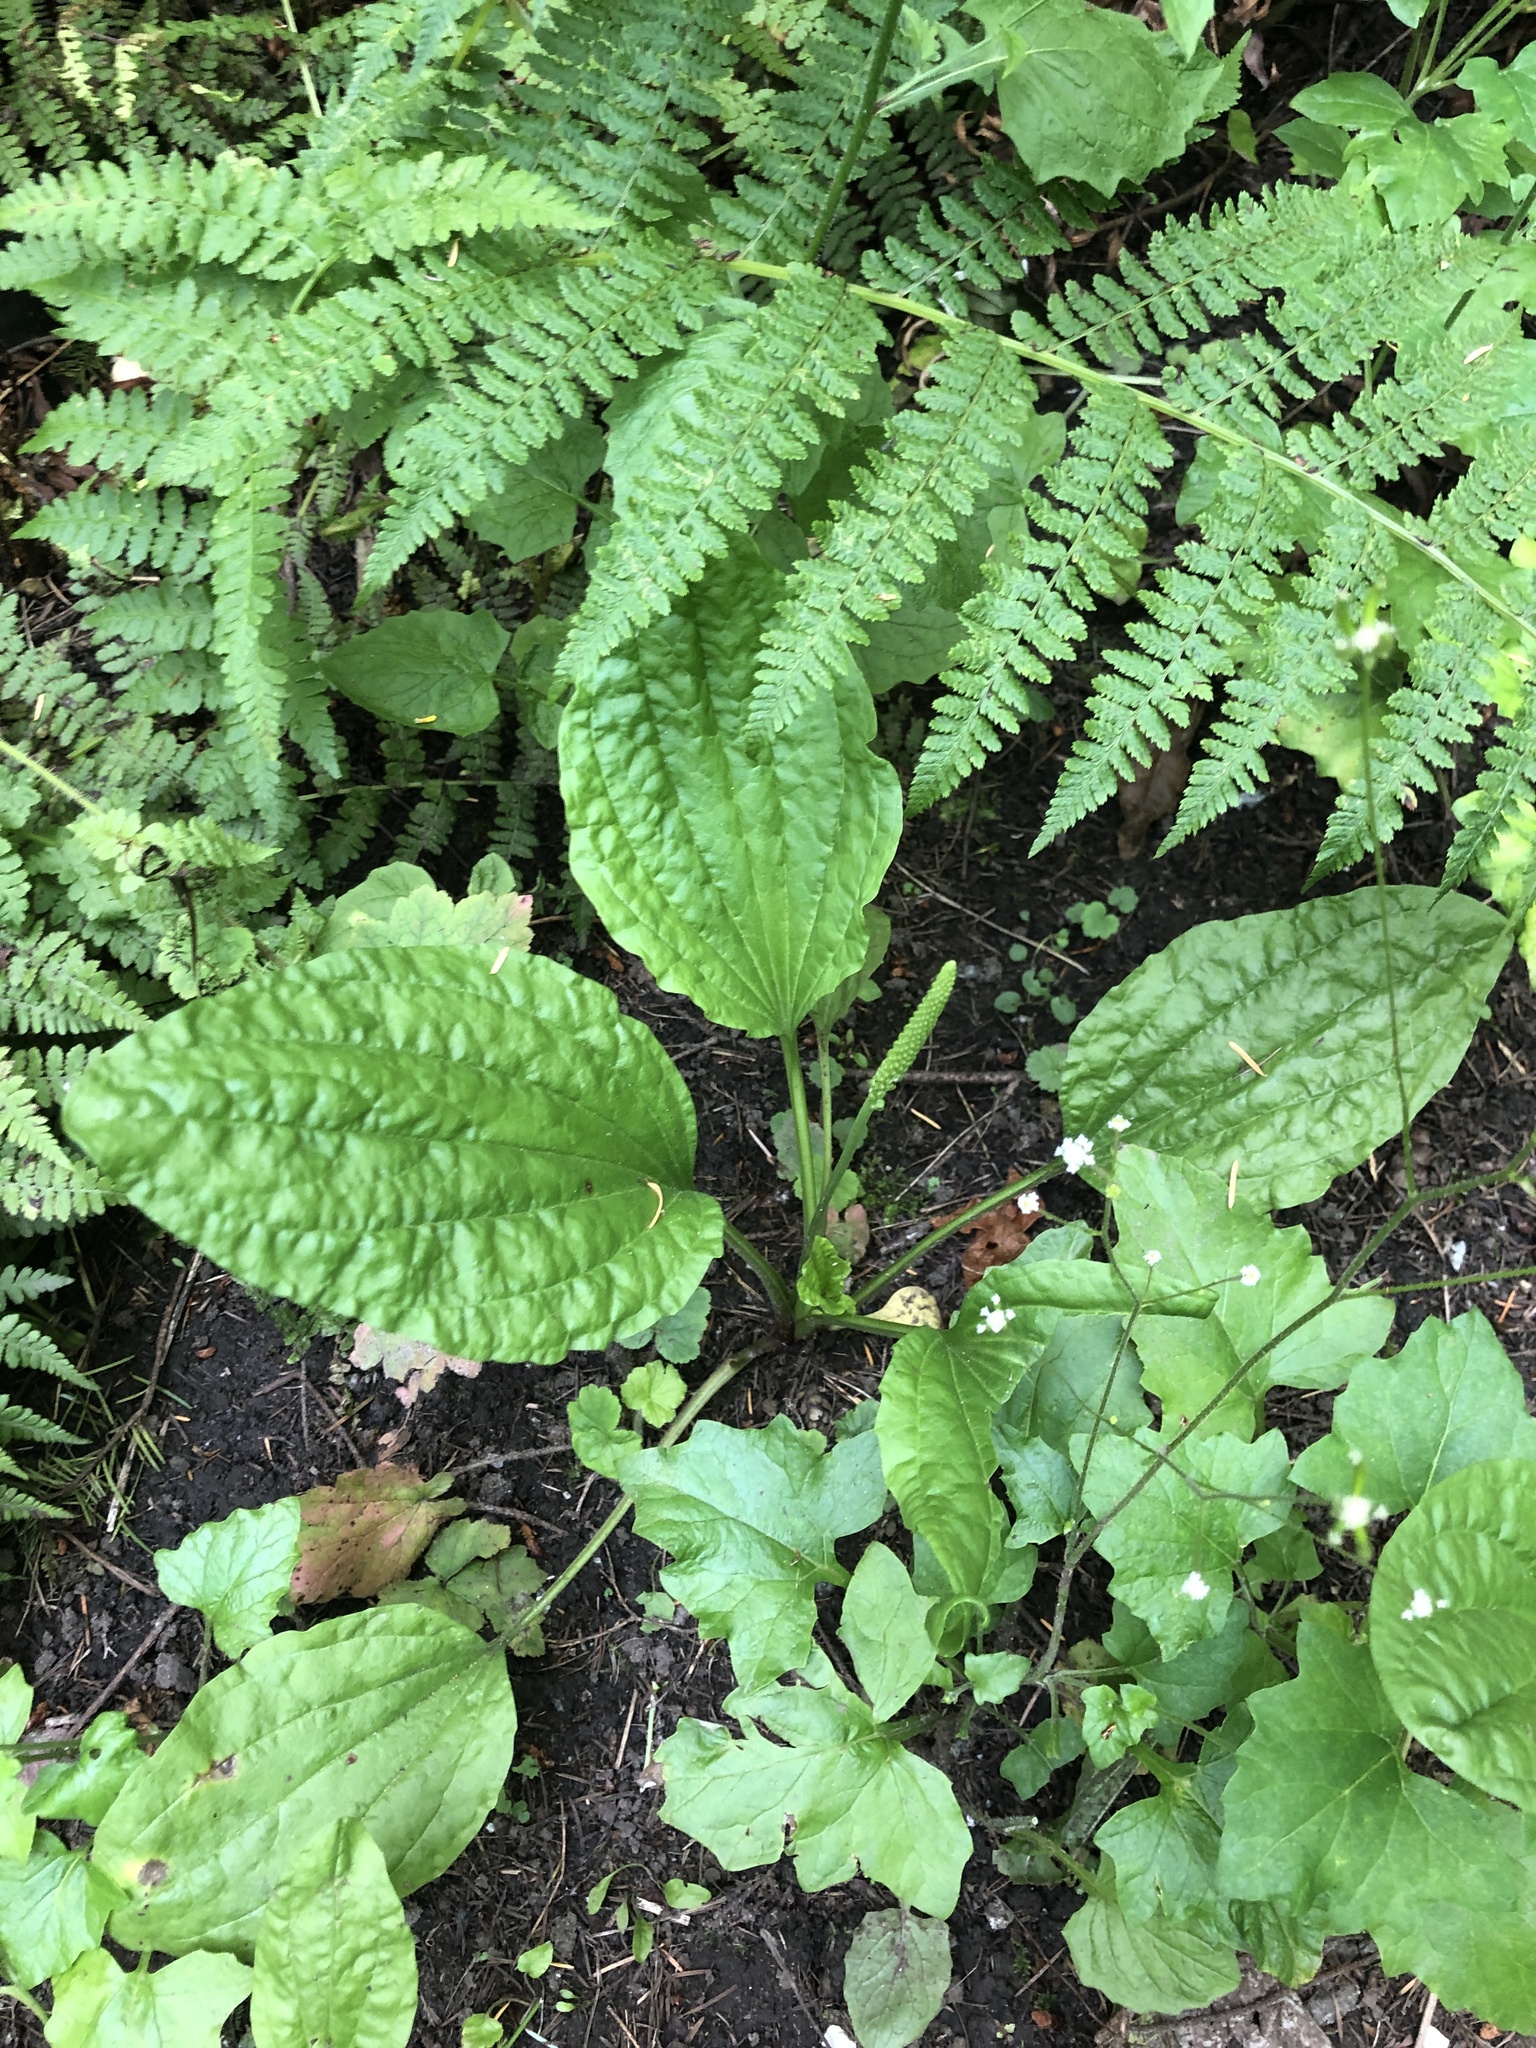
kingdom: Plantae
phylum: Tracheophyta
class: Magnoliopsida
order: Lamiales
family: Plantaginaceae
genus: Plantago
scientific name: Plantago major
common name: Common plantain
